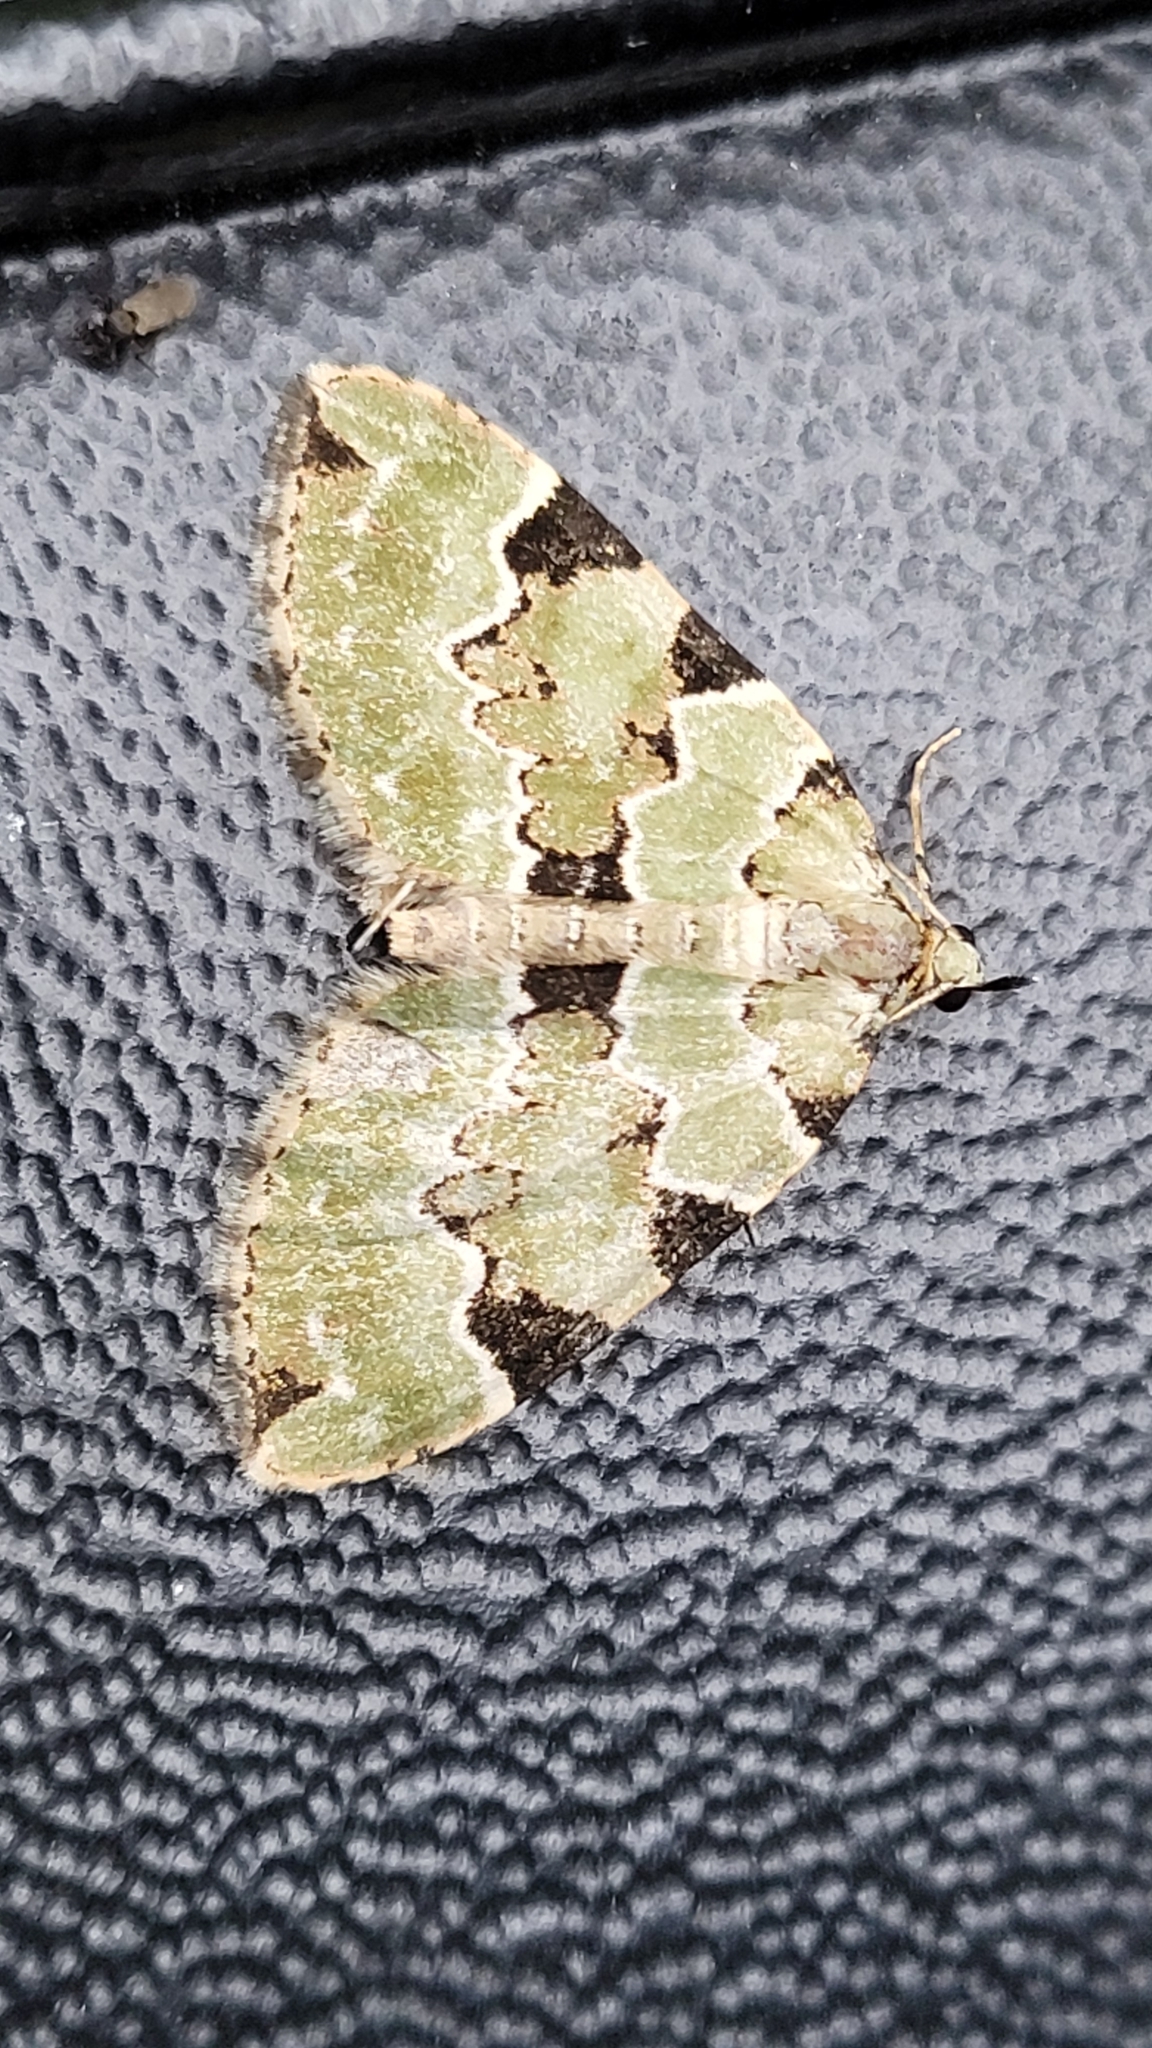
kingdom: Animalia
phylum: Arthropoda
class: Insecta
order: Lepidoptera
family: Geometridae
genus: Colostygia
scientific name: Colostygia pectinataria
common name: Green carpet
